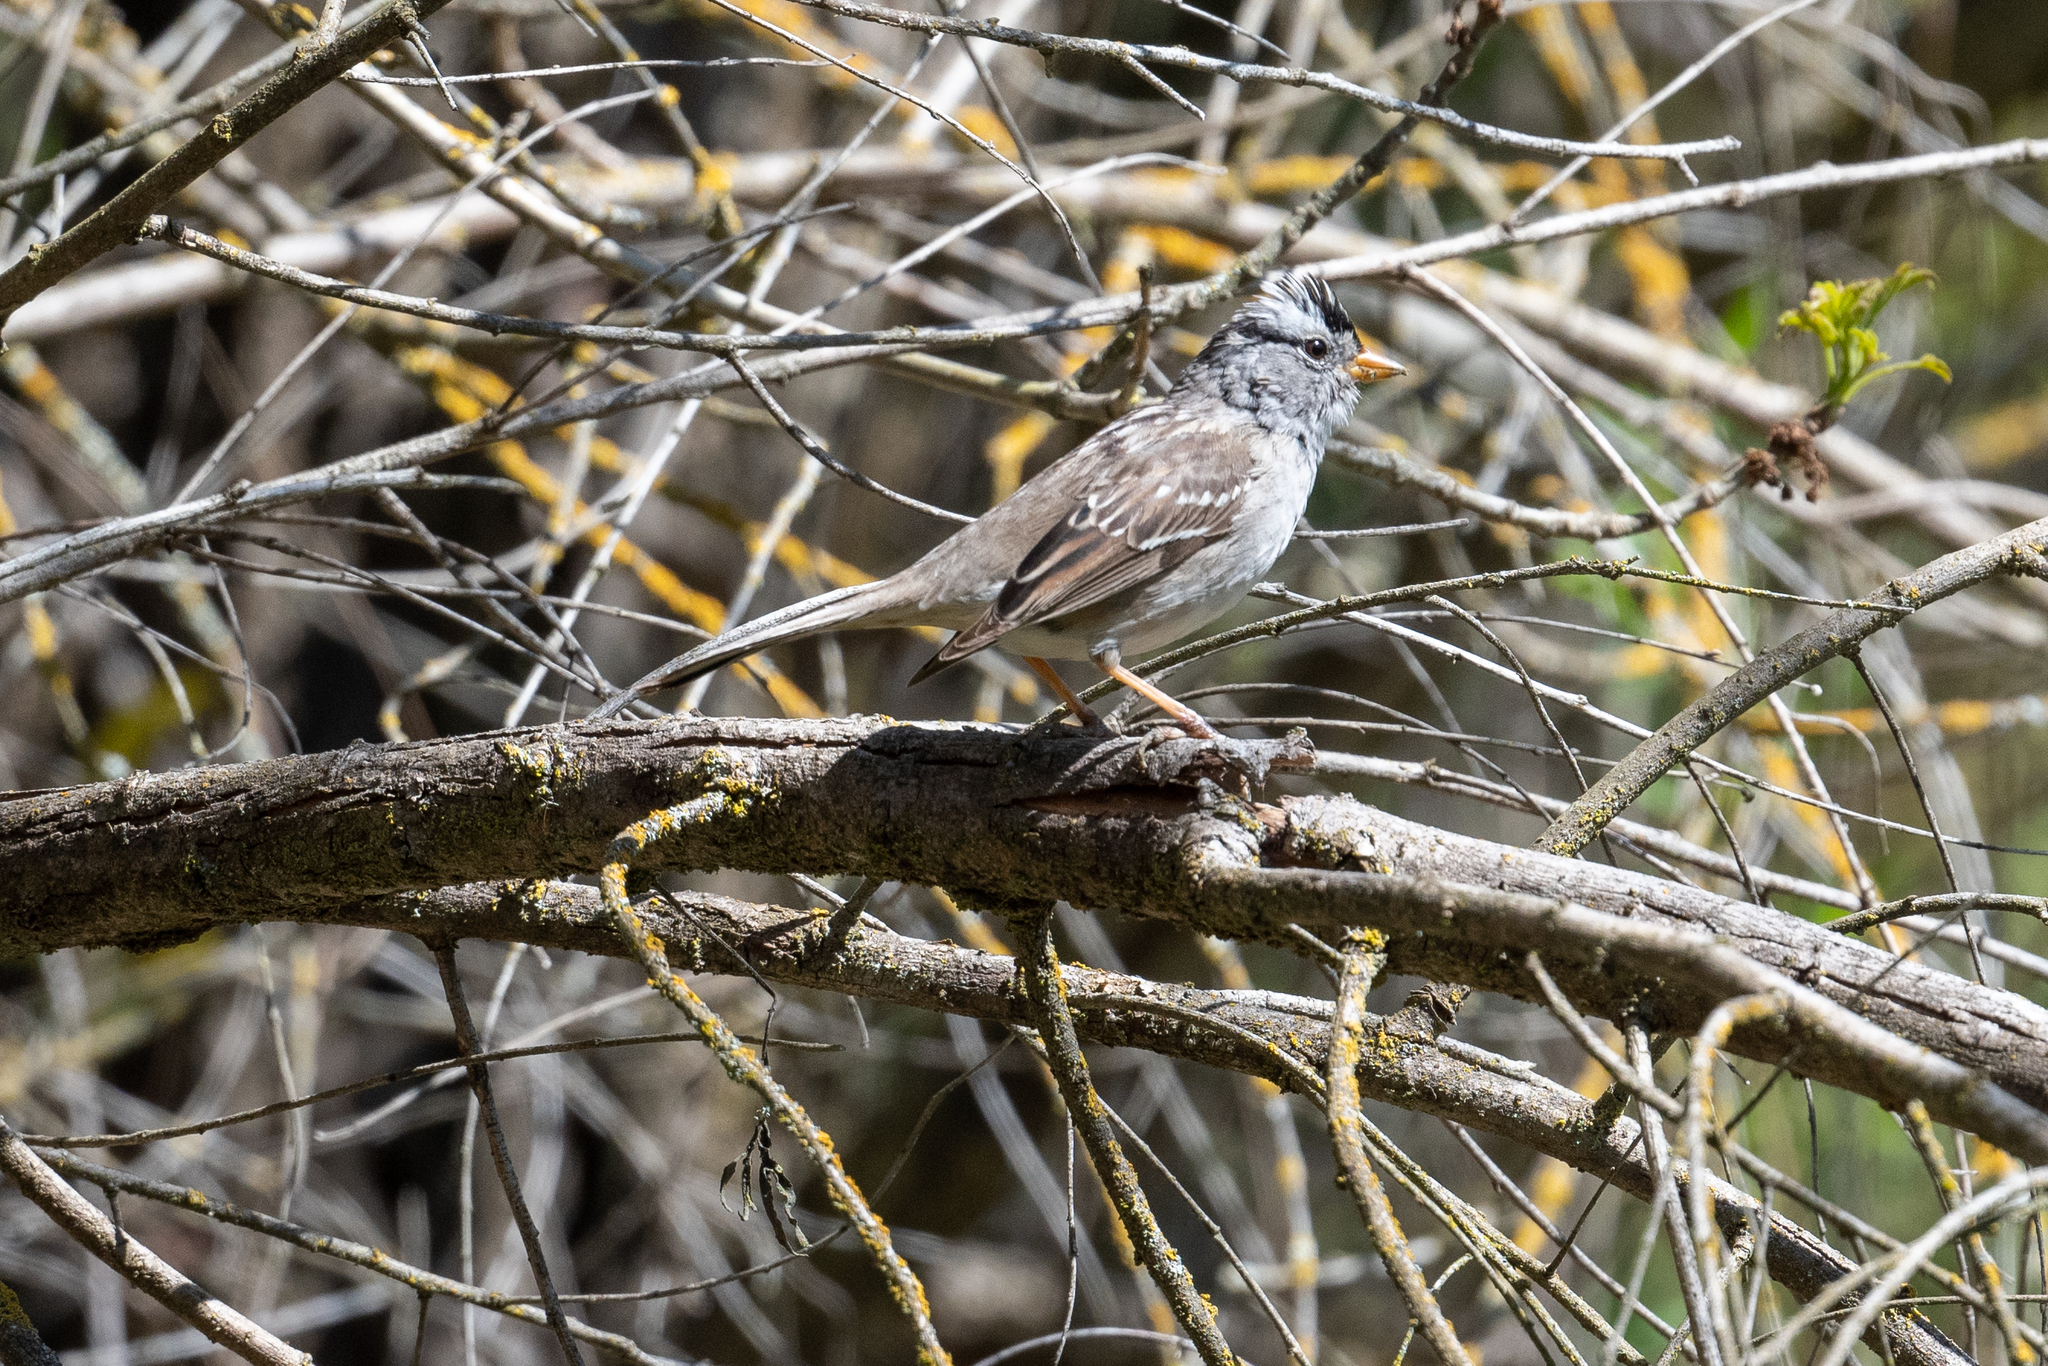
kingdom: Animalia
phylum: Chordata
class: Aves
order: Passeriformes
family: Passerellidae
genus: Zonotrichia
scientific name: Zonotrichia leucophrys
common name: White-crowned sparrow
